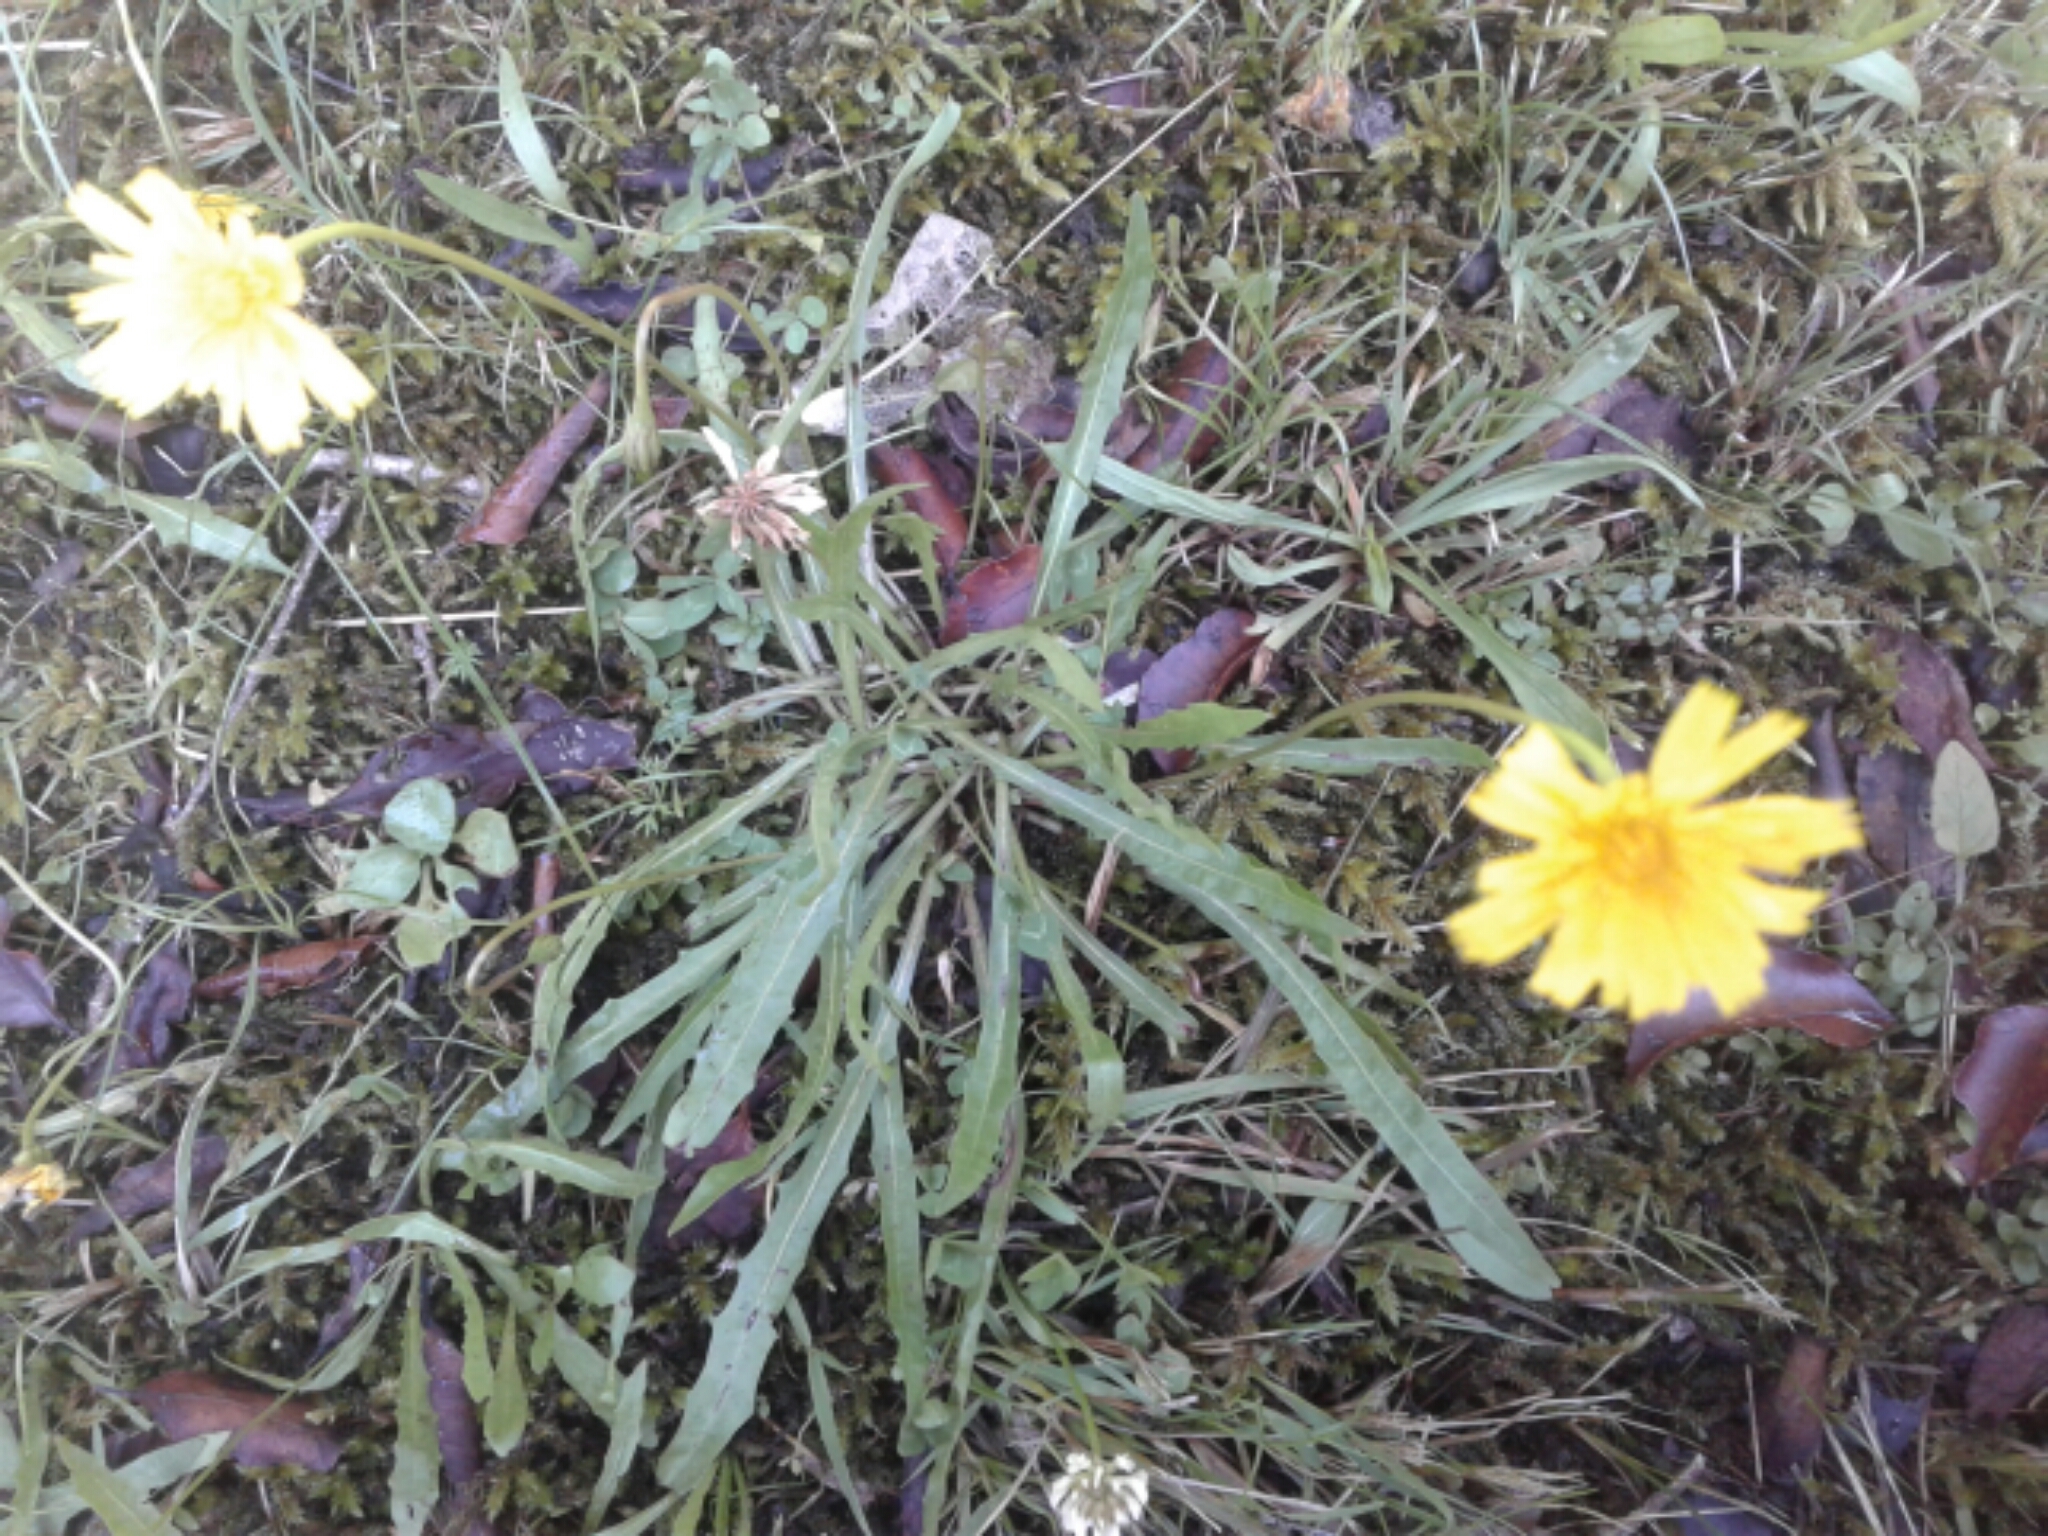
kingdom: Plantae
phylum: Tracheophyta
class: Magnoliopsida
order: Asterales
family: Asteraceae
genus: Taraxacum
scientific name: Taraxacum officinale
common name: Common dandelion
